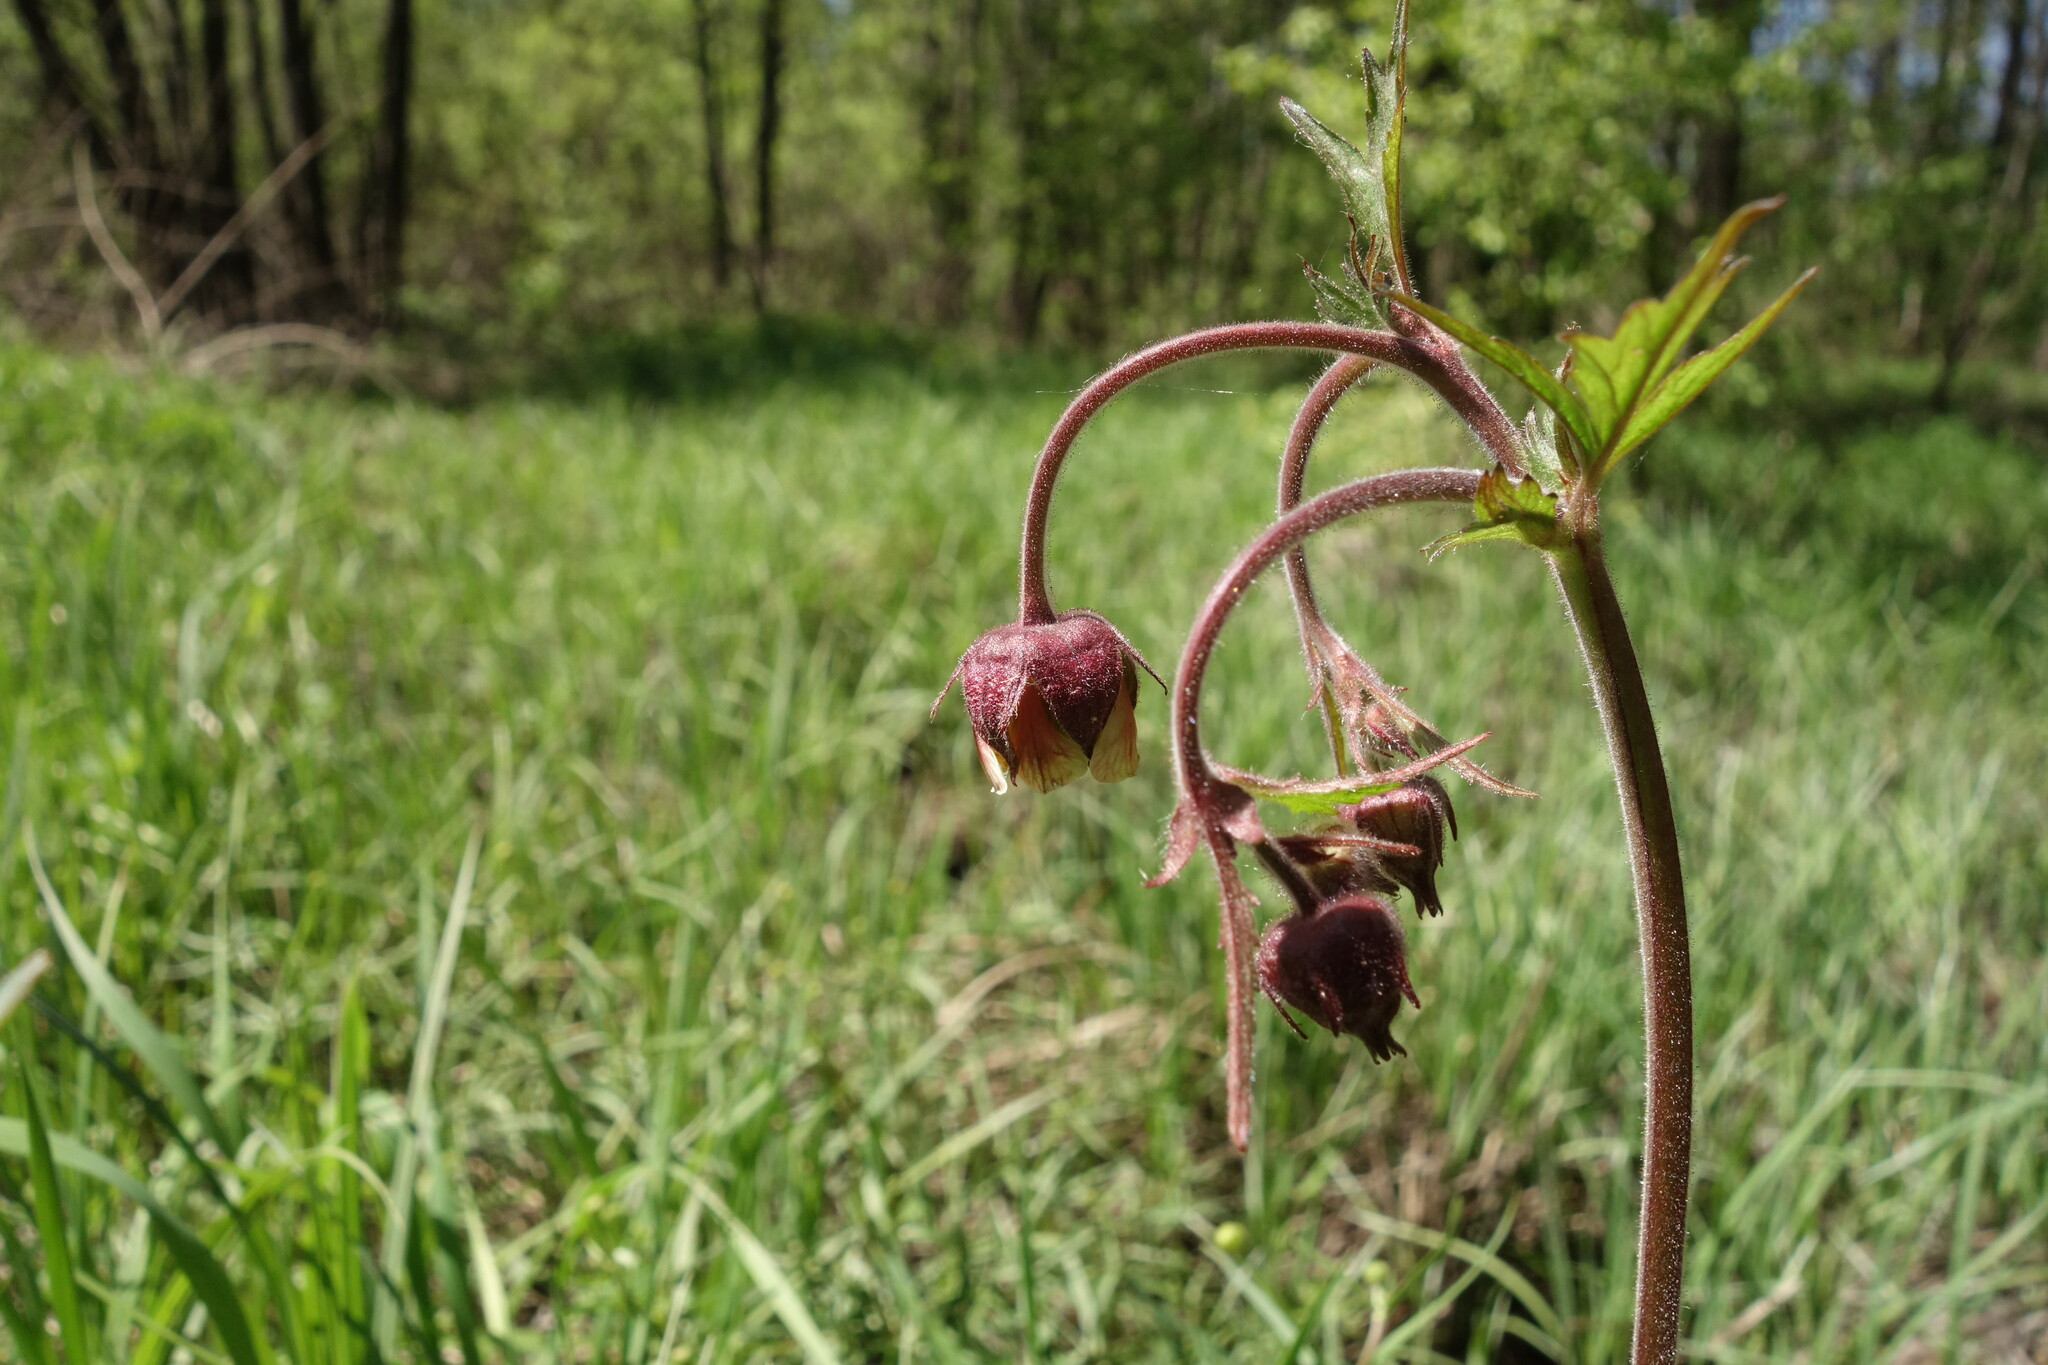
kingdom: Plantae
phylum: Tracheophyta
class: Magnoliopsida
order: Rosales
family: Rosaceae
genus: Geum
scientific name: Geum rivale
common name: Water avens
